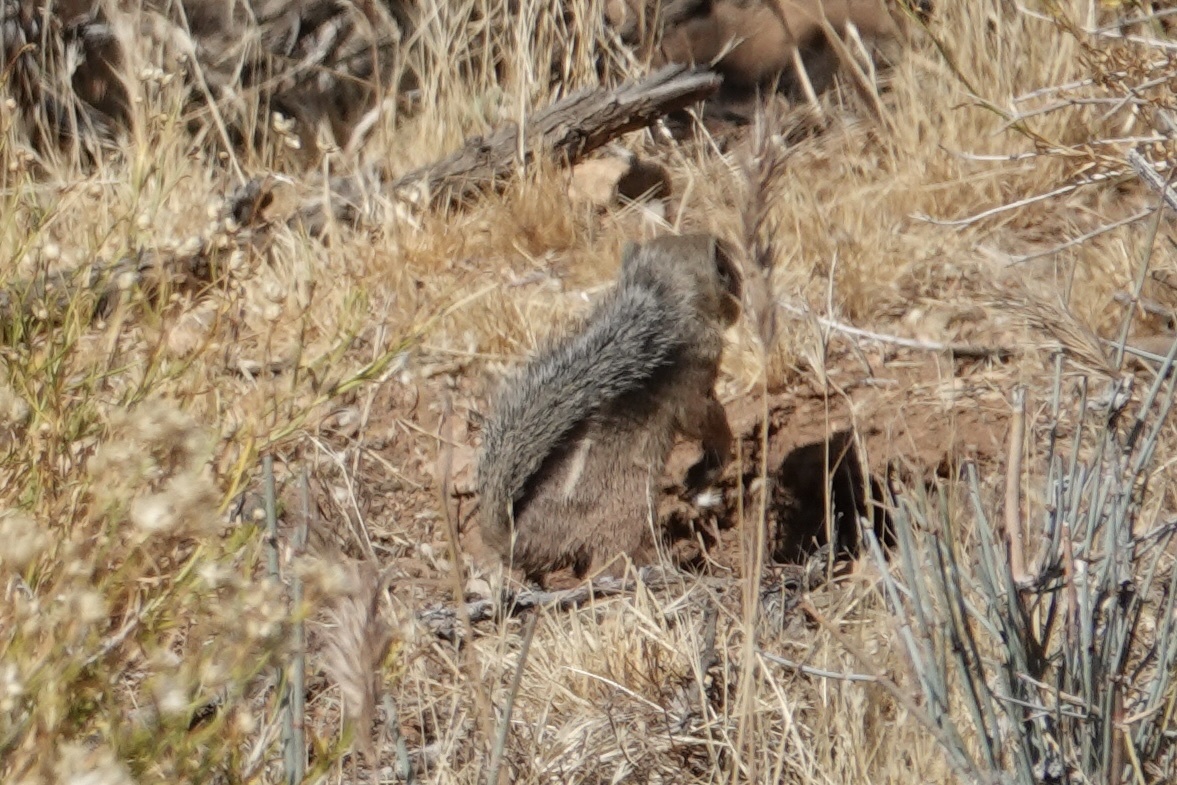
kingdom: Animalia
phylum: Chordata
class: Mammalia
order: Rodentia
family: Sciuridae
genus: Ammospermophilus
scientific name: Ammospermophilus harrisii
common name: Harris's antelope squirrel
